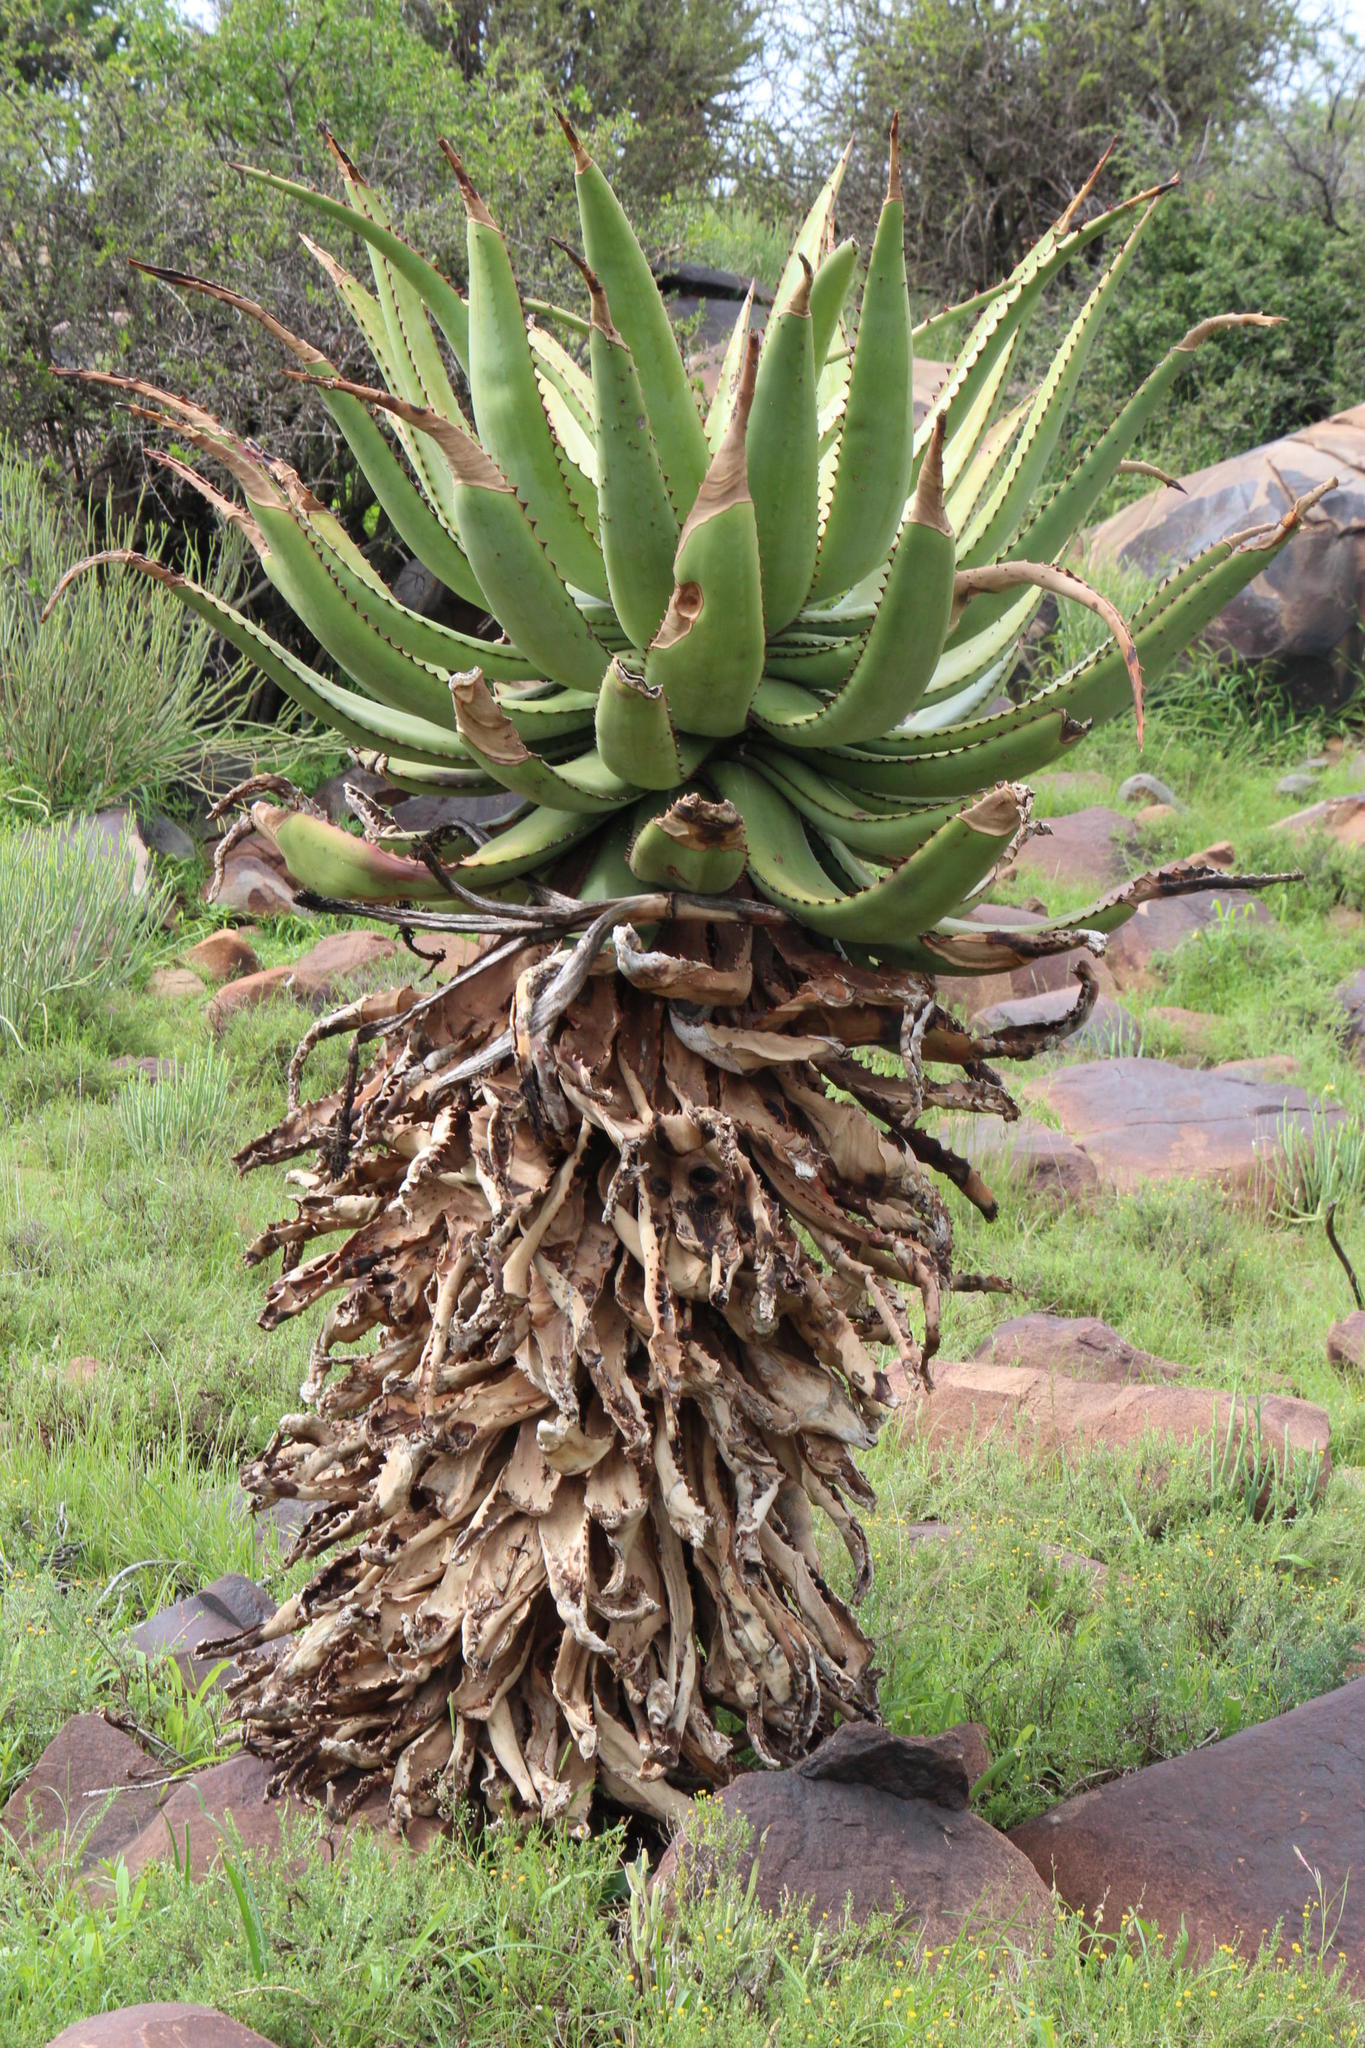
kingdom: Plantae
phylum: Tracheophyta
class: Liliopsida
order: Asparagales
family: Asphodelaceae
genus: Aloe
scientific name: Aloe ferox
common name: Bitter aloe
